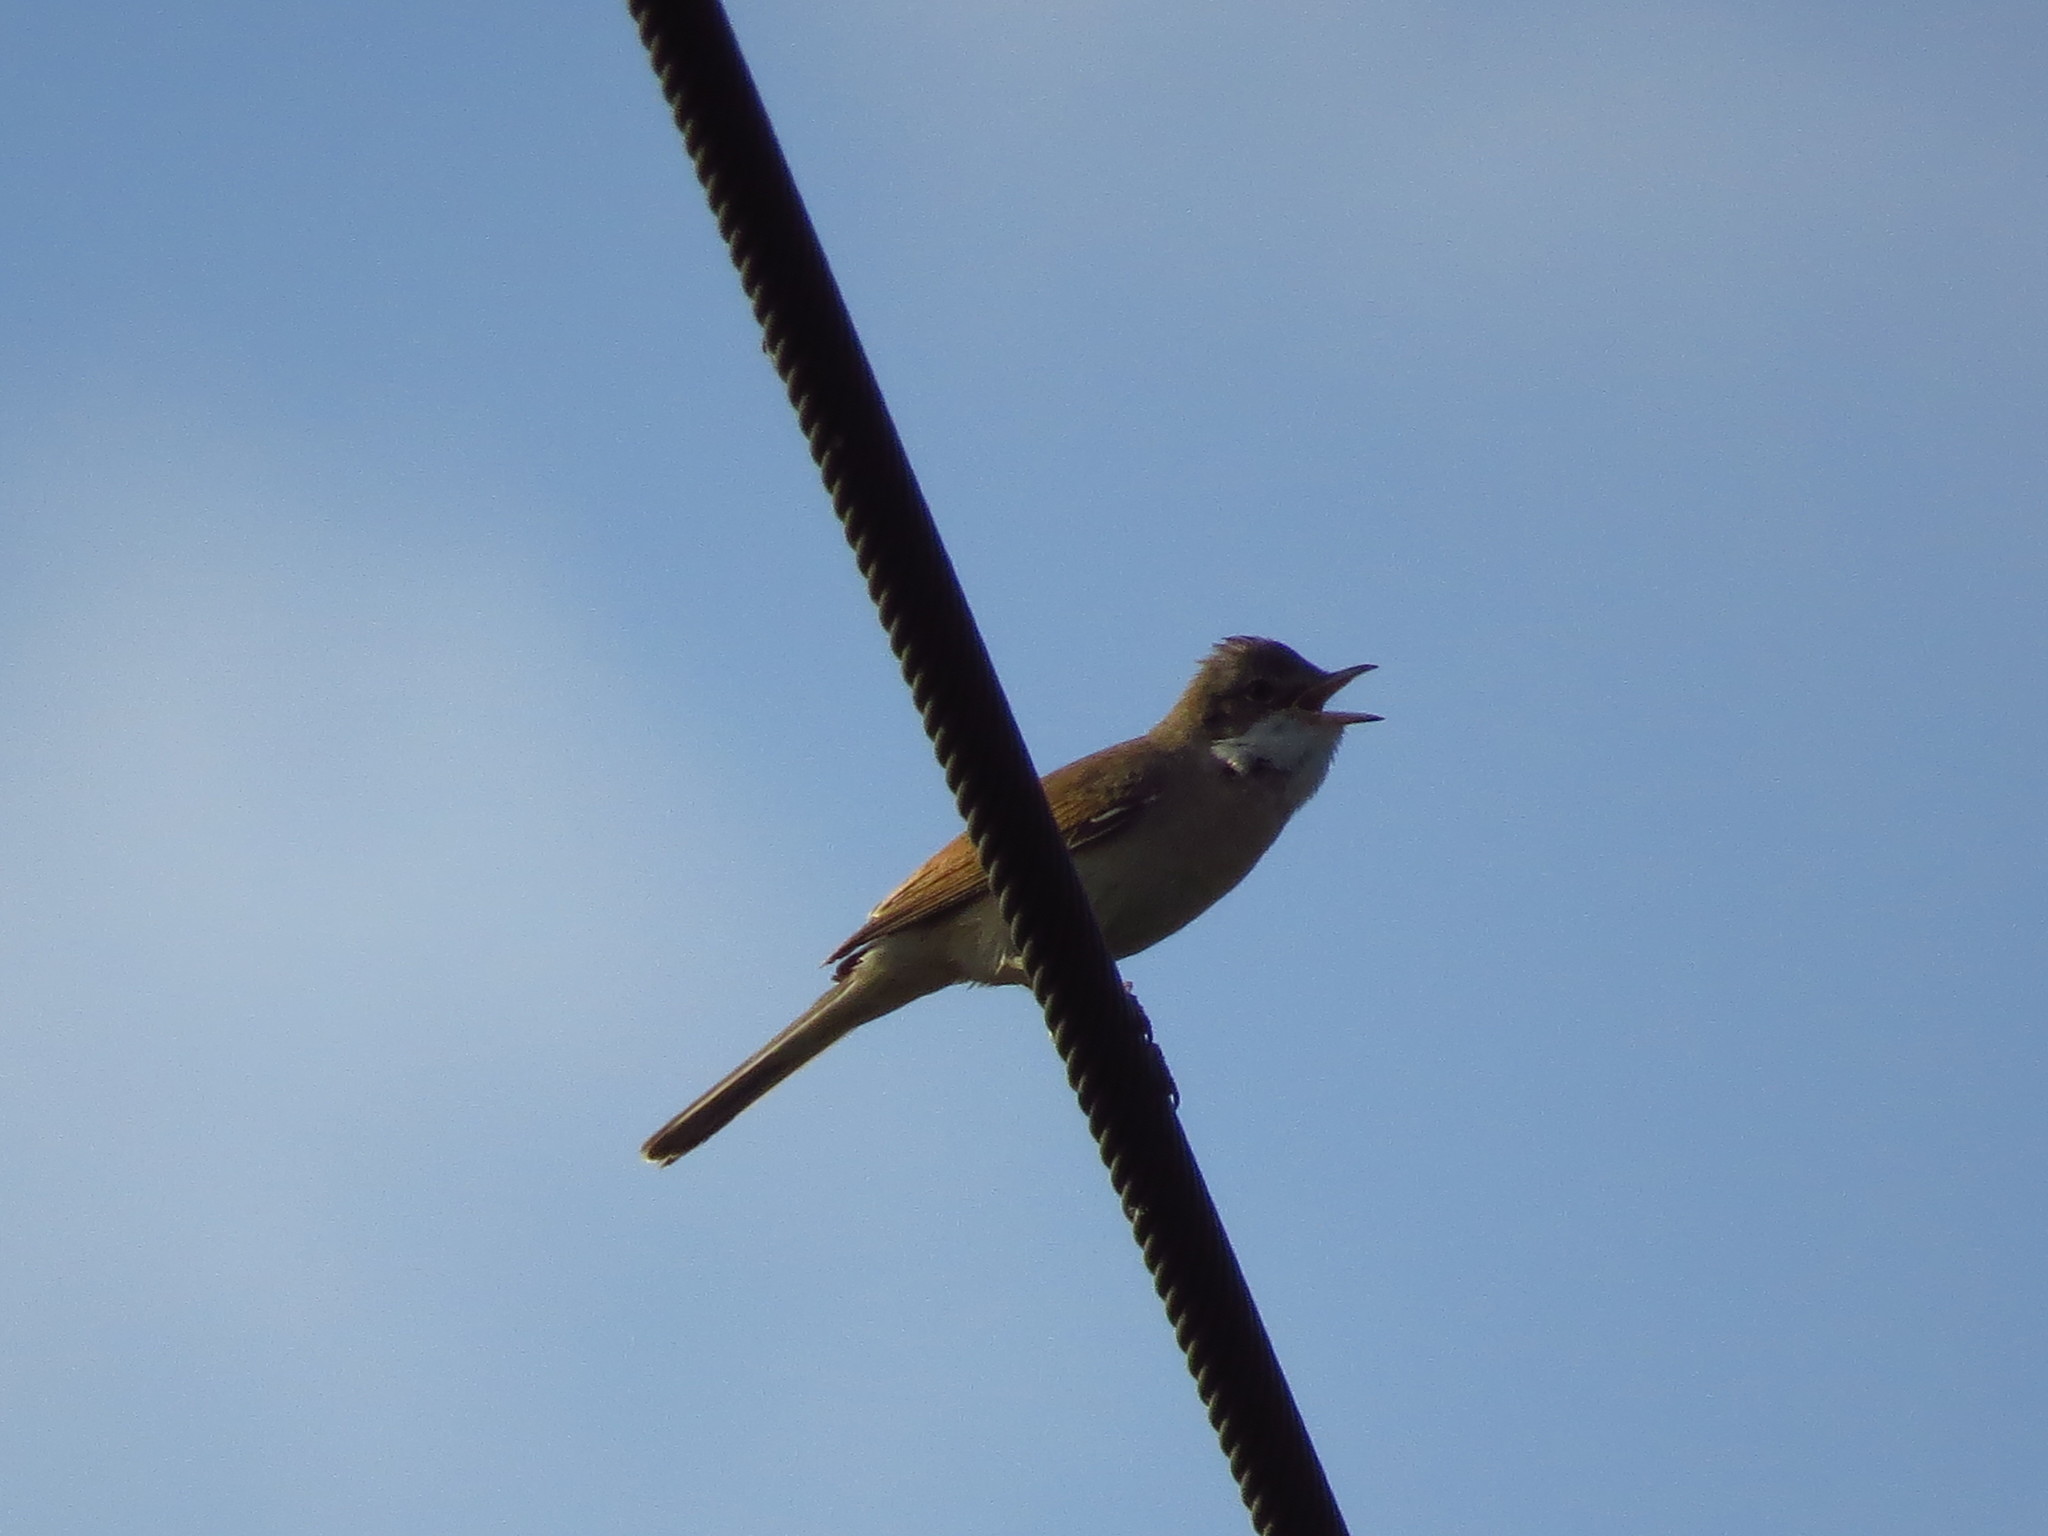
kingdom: Animalia
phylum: Chordata
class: Aves
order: Passeriformes
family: Sylviidae
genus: Sylvia
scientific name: Sylvia communis
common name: Common whitethroat
